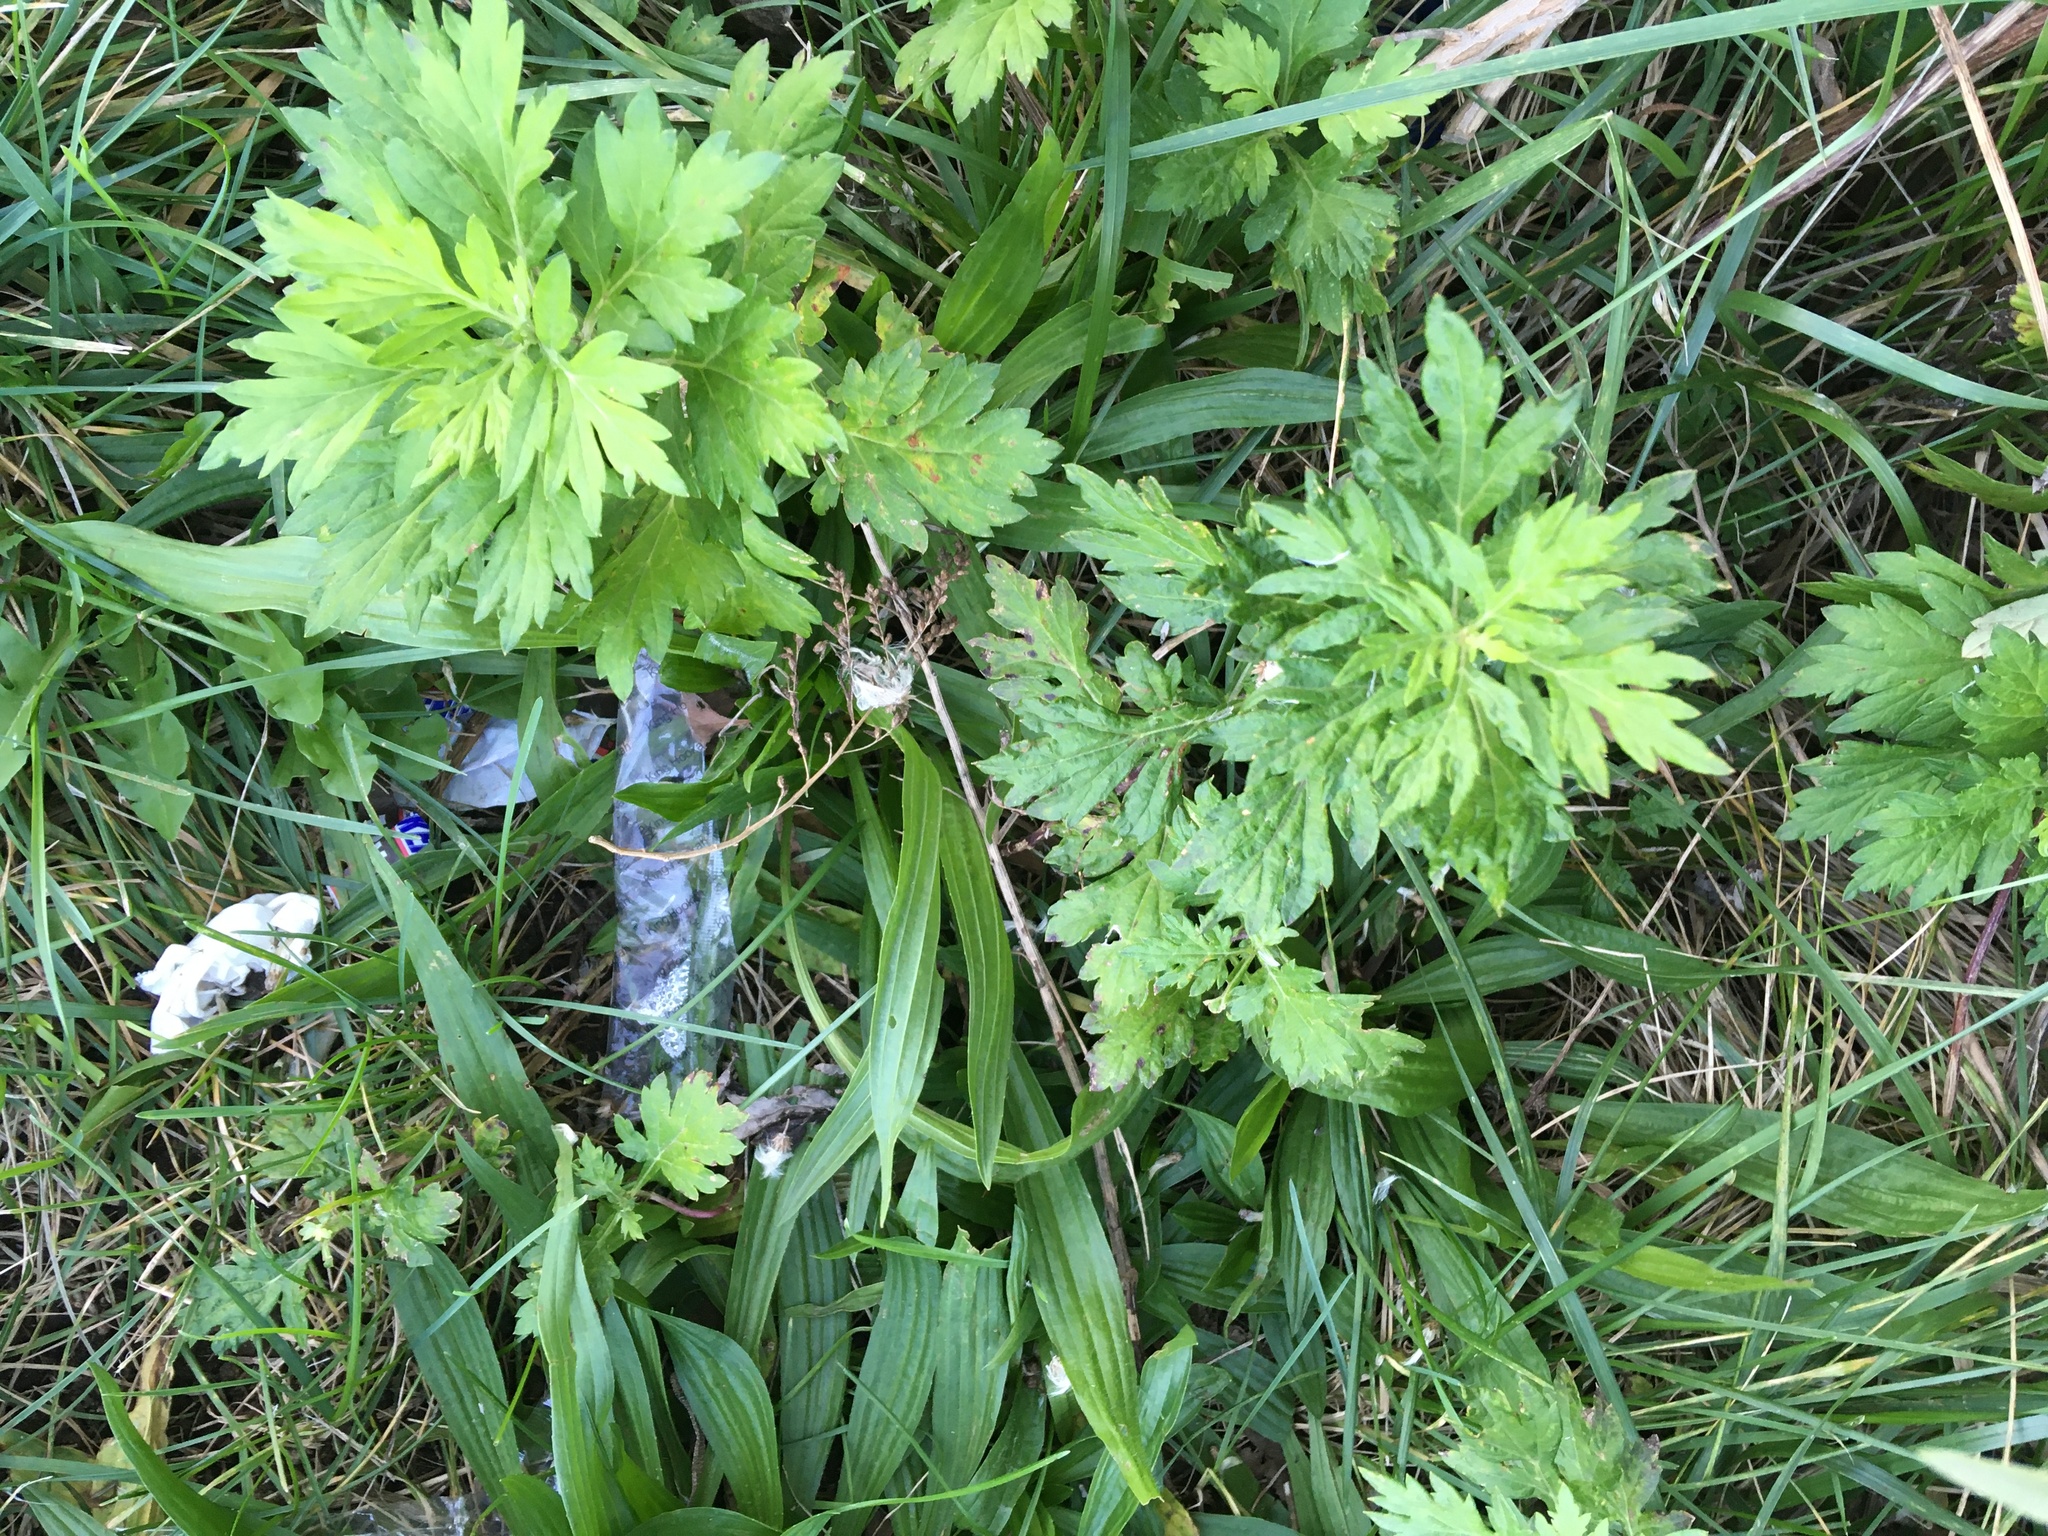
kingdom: Plantae
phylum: Tracheophyta
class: Magnoliopsida
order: Asterales
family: Asteraceae
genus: Artemisia
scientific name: Artemisia vulgaris
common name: Mugwort
